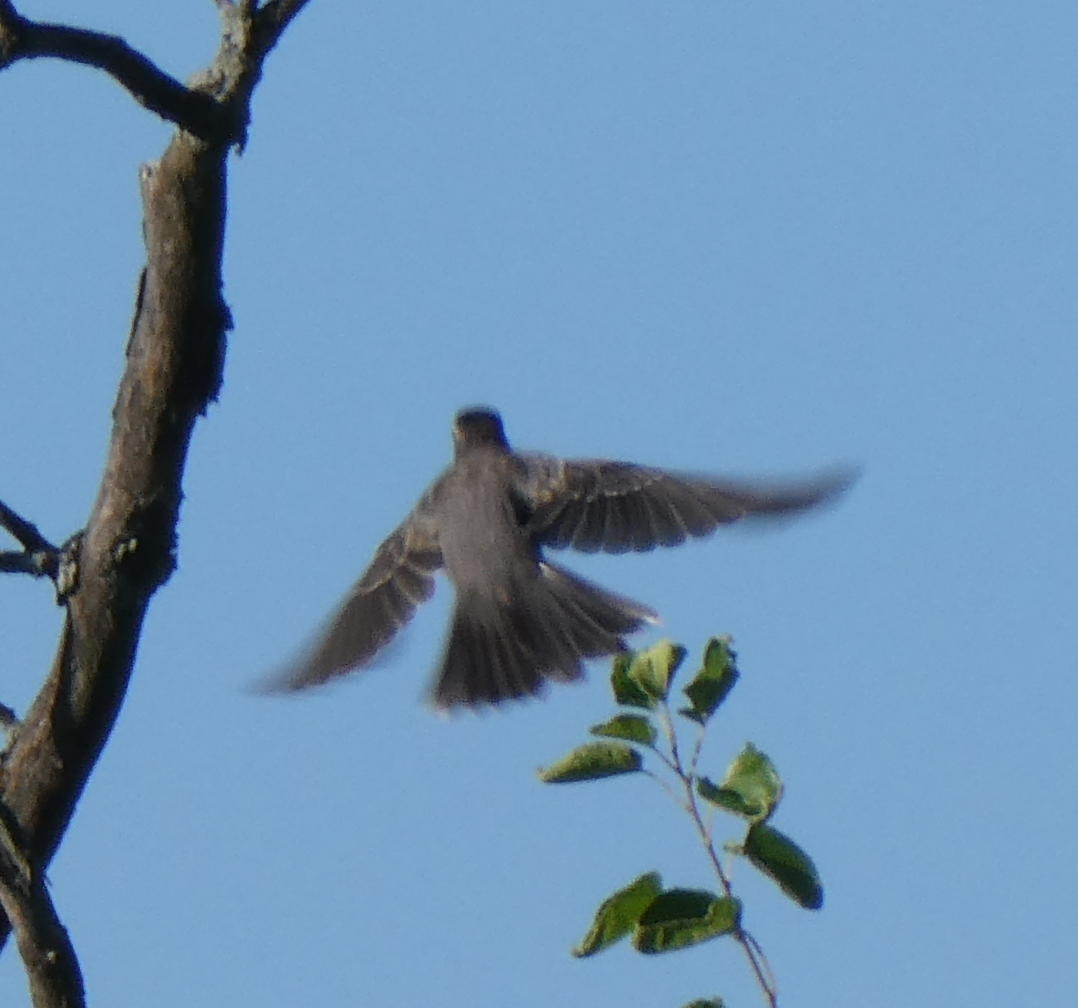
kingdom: Animalia
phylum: Chordata
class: Aves
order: Passeriformes
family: Turdidae
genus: Turdus
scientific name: Turdus migratorius
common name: American robin
